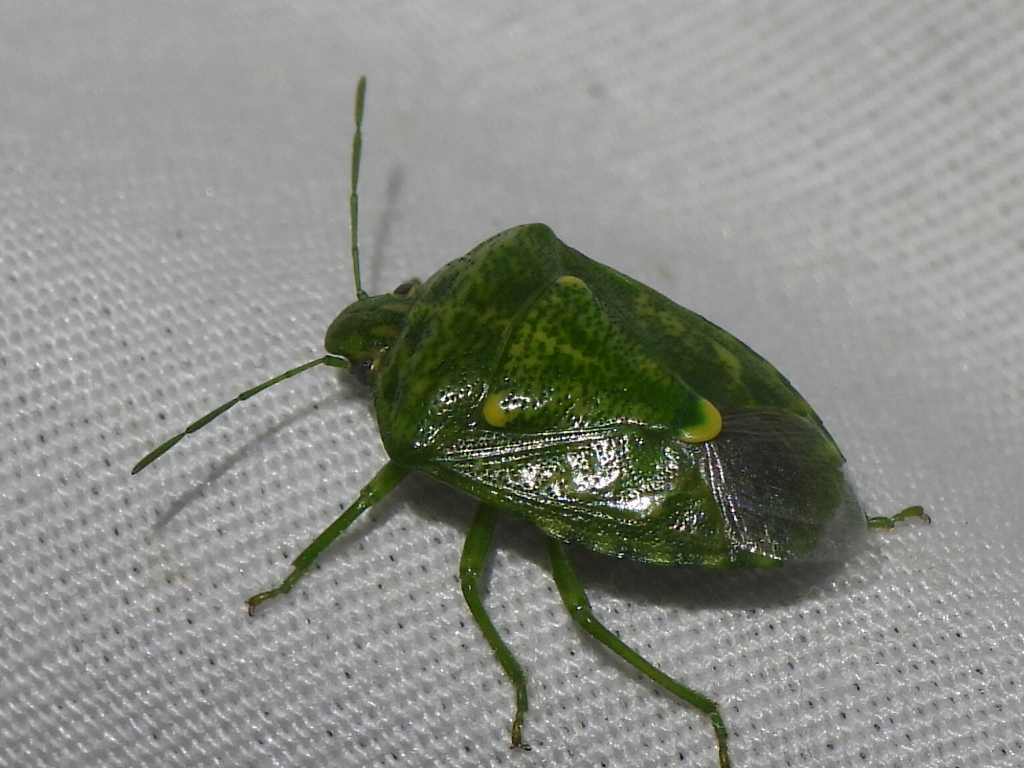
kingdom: Animalia
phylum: Arthropoda
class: Insecta
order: Hemiptera
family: Pentatomidae
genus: Banasa
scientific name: Banasa euchlora
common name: Cedar berry bug
